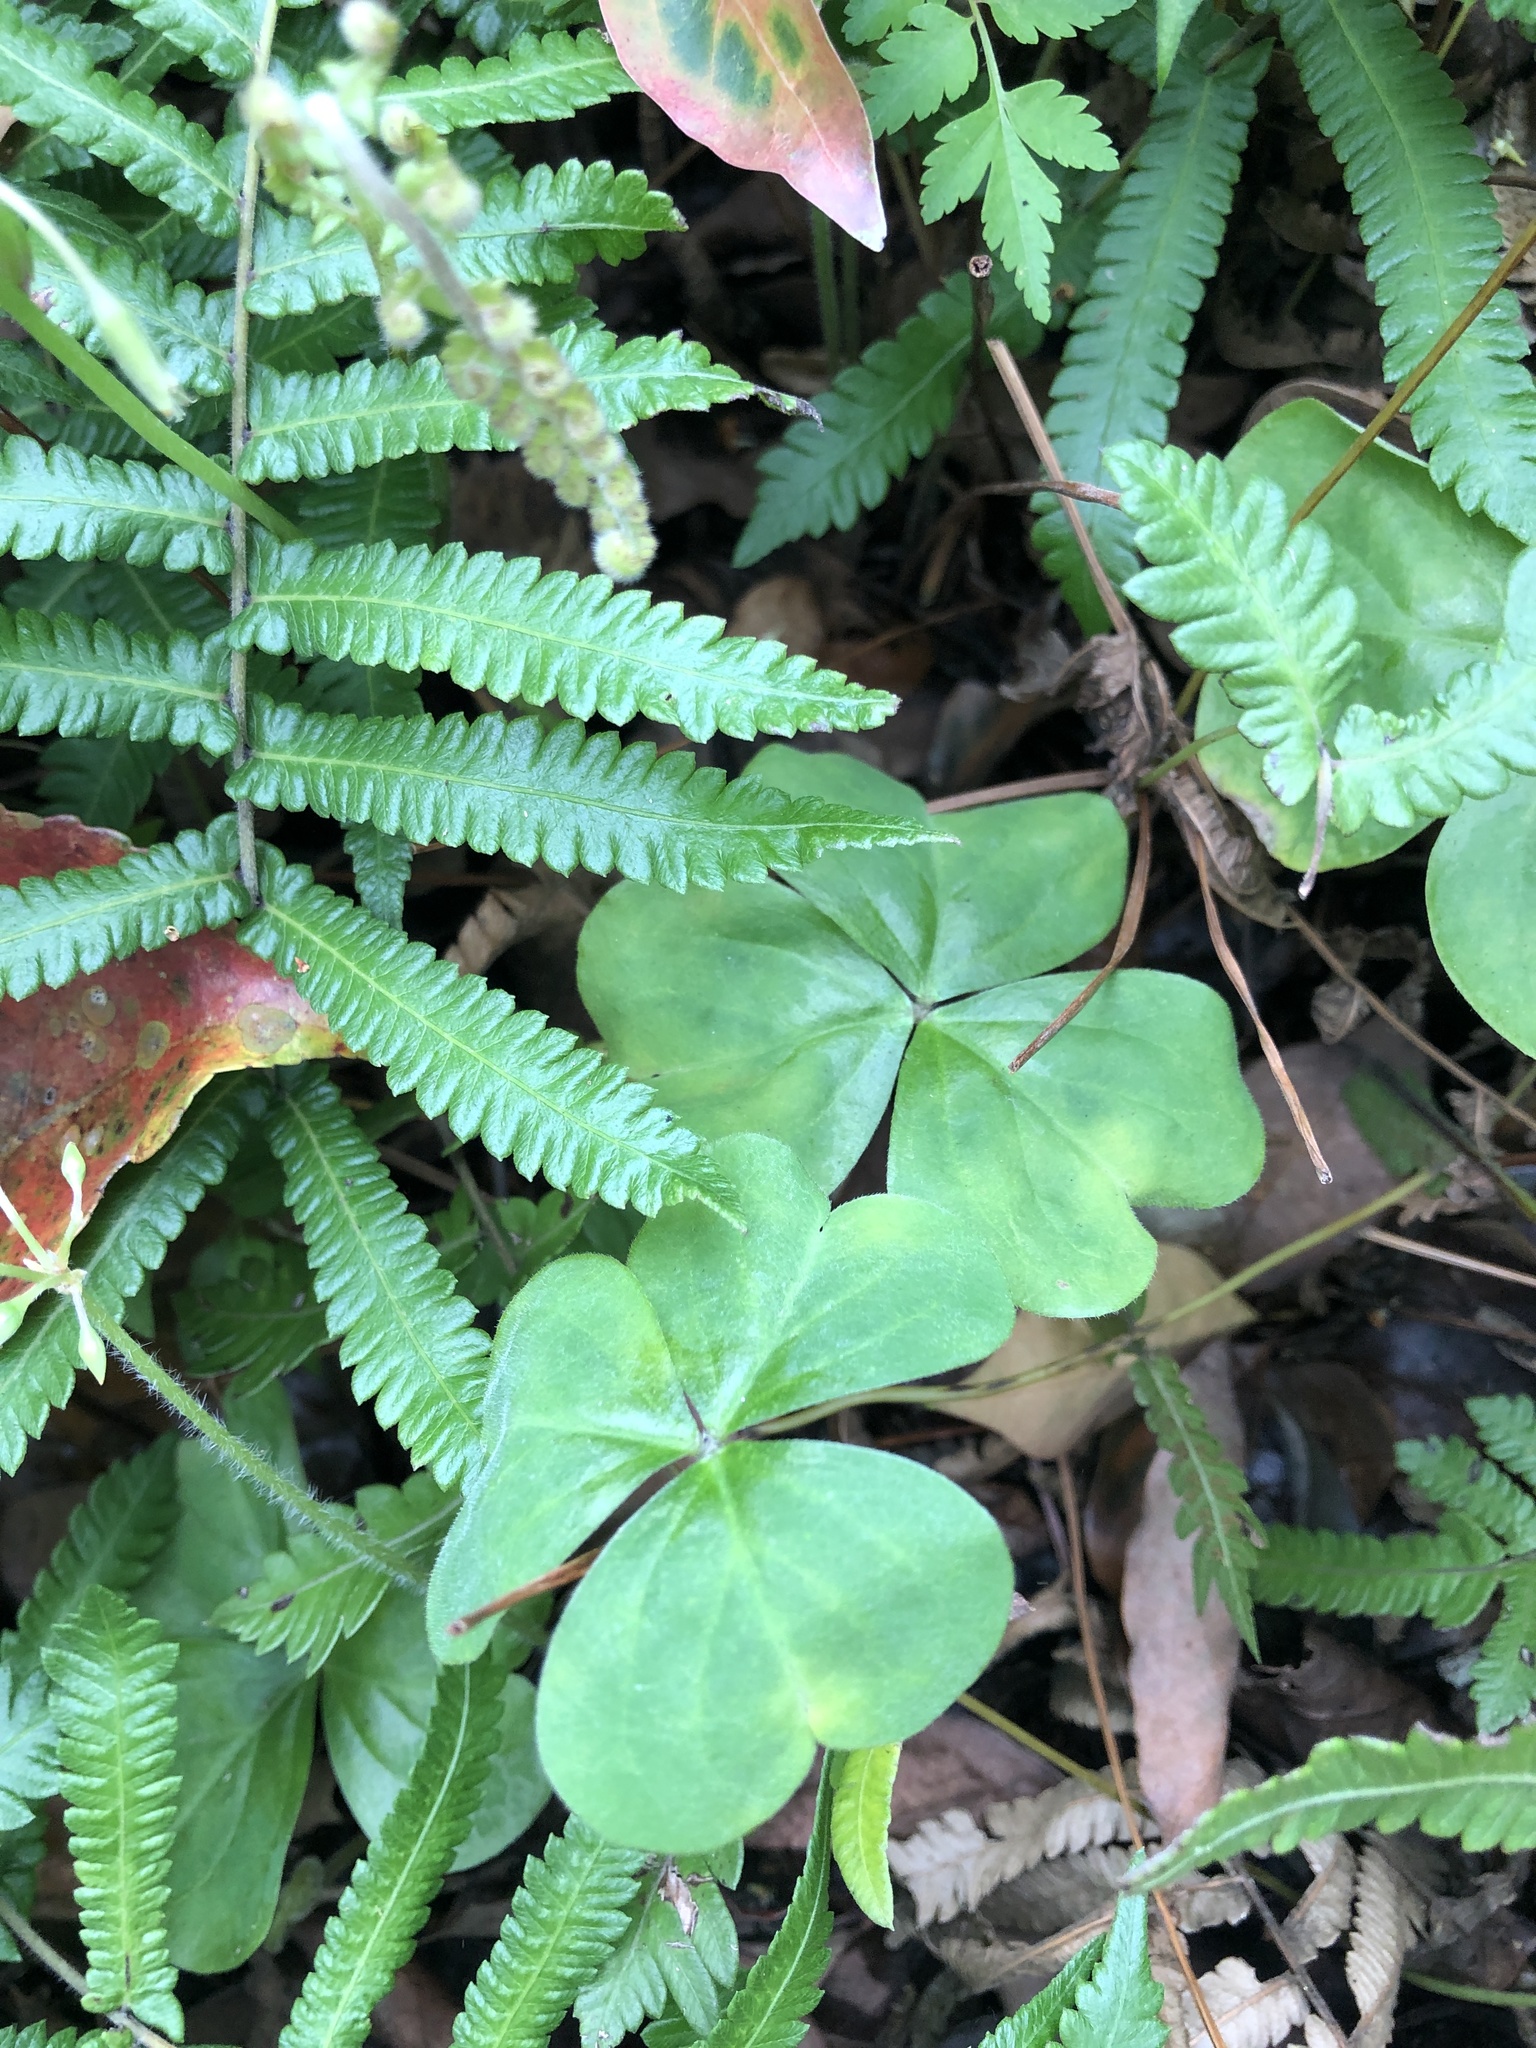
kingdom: Plantae
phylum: Tracheophyta
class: Magnoliopsida
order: Oxalidales
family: Oxalidaceae
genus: Oxalis
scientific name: Oxalis debilis
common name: Large-flowered pink-sorrel
